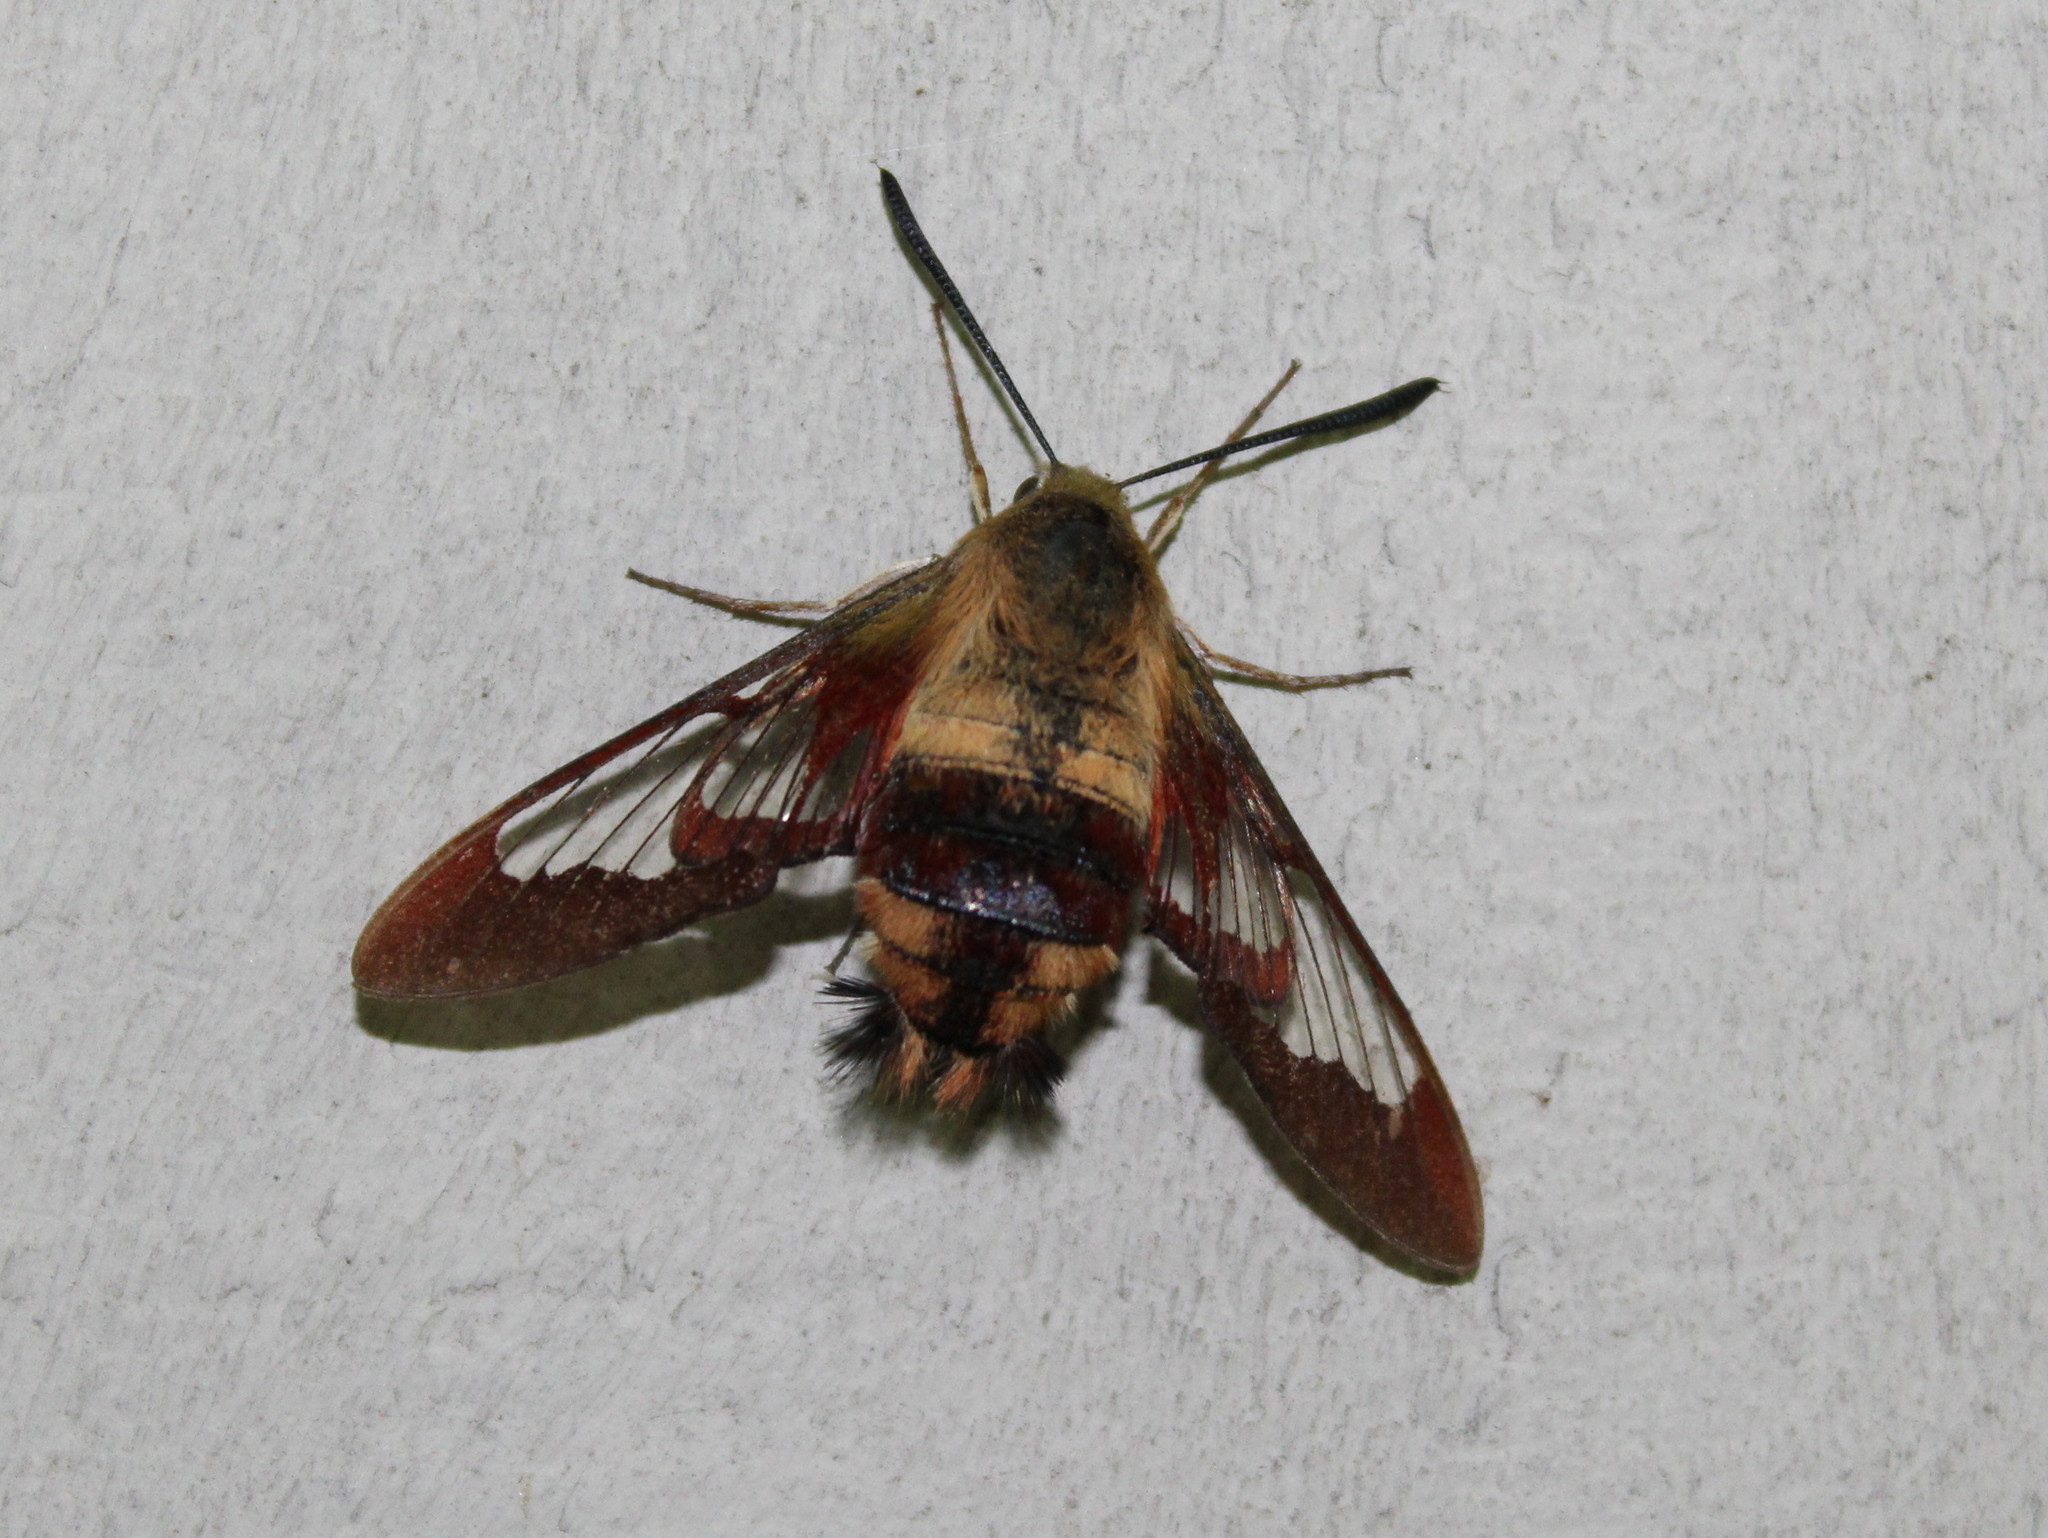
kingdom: Animalia
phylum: Arthropoda
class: Insecta
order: Lepidoptera
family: Sphingidae
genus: Hemaris
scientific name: Hemaris thysbe
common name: Common clear-wing
